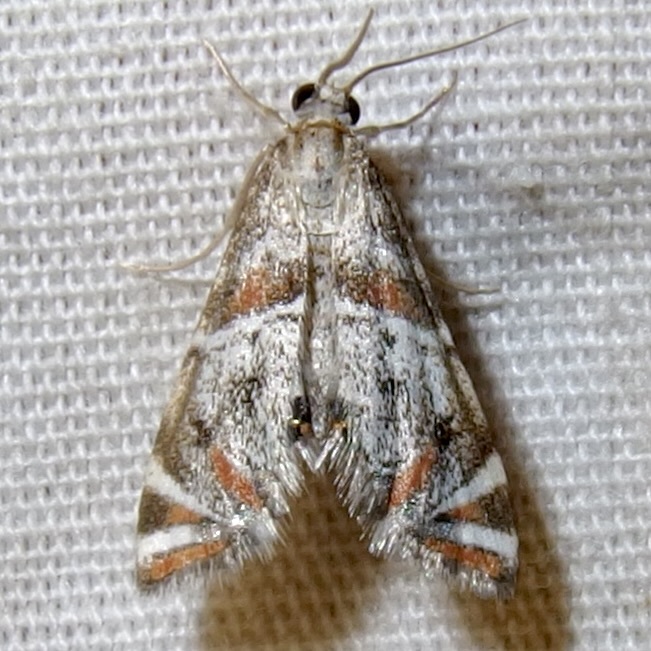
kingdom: Animalia
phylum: Arthropoda
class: Insecta
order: Lepidoptera
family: Crambidae
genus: Petrophila
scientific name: Petrophila jaliscalis
